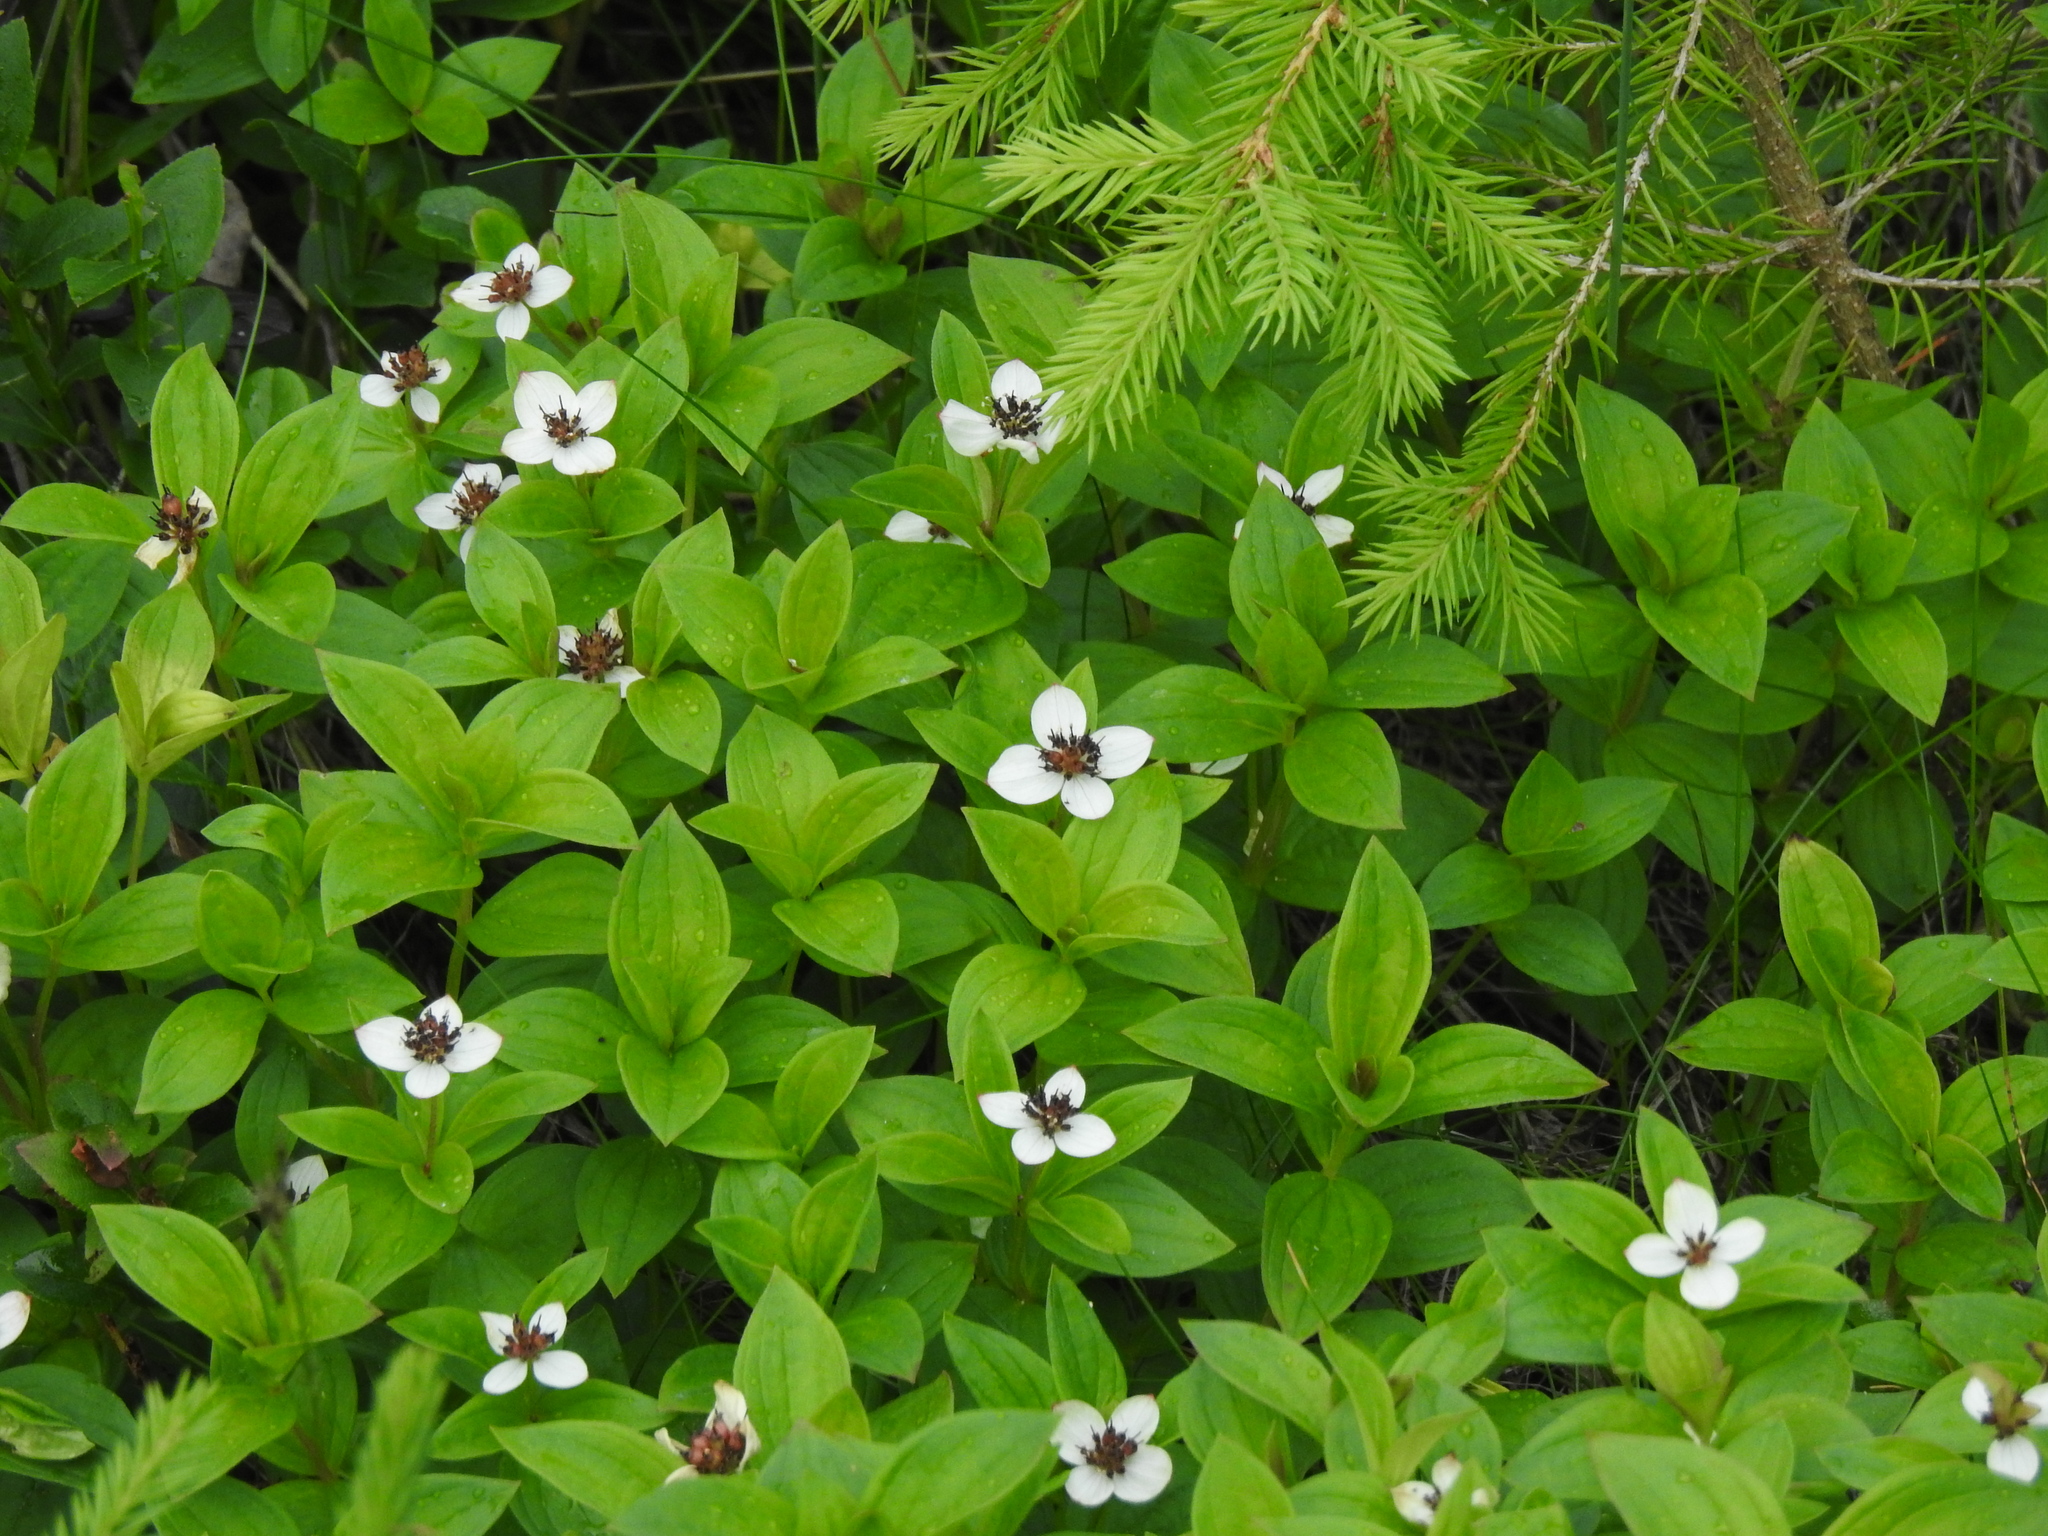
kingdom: Plantae
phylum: Tracheophyta
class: Magnoliopsida
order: Cornales
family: Cornaceae
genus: Cornus
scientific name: Cornus suecica
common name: Dwarf cornel
